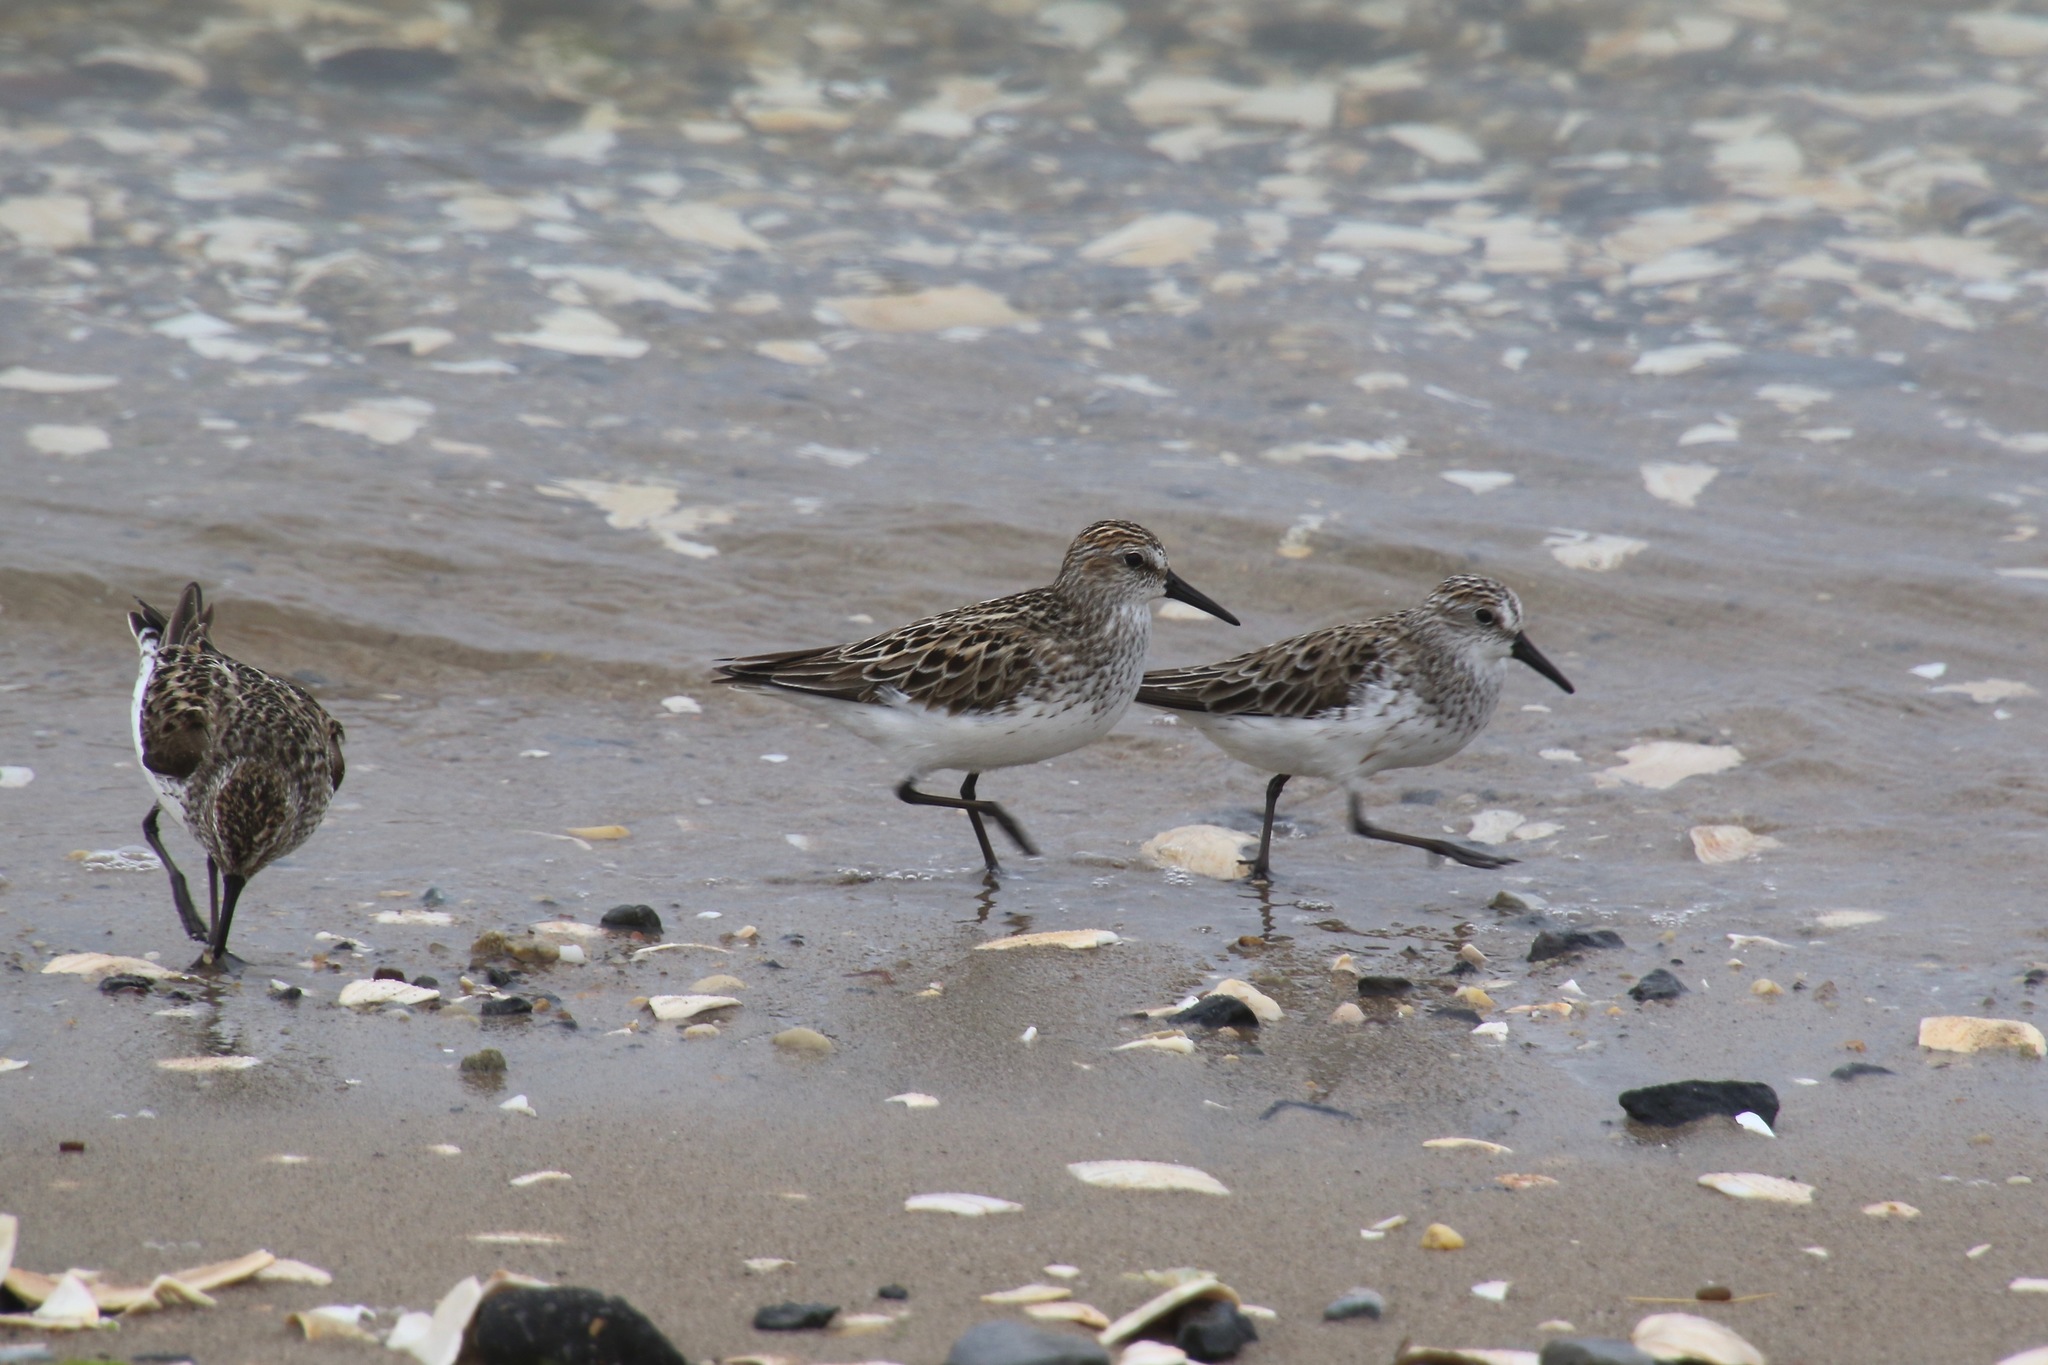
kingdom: Animalia
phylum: Chordata
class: Aves
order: Charadriiformes
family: Scolopacidae
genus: Calidris
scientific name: Calidris pusilla
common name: Semipalmated sandpiper
